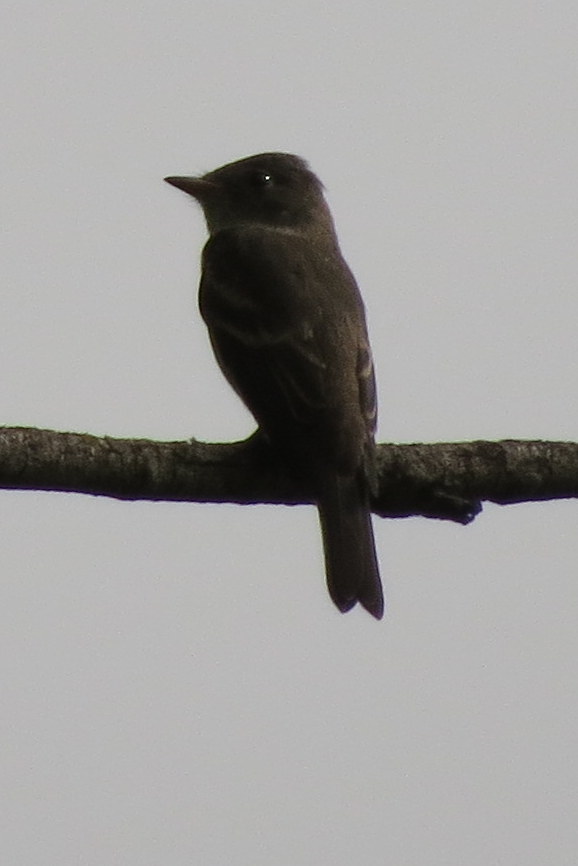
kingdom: Animalia
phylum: Chordata
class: Aves
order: Passeriformes
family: Tyrannidae
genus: Contopus
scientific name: Contopus virens
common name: Eastern wood-pewee
